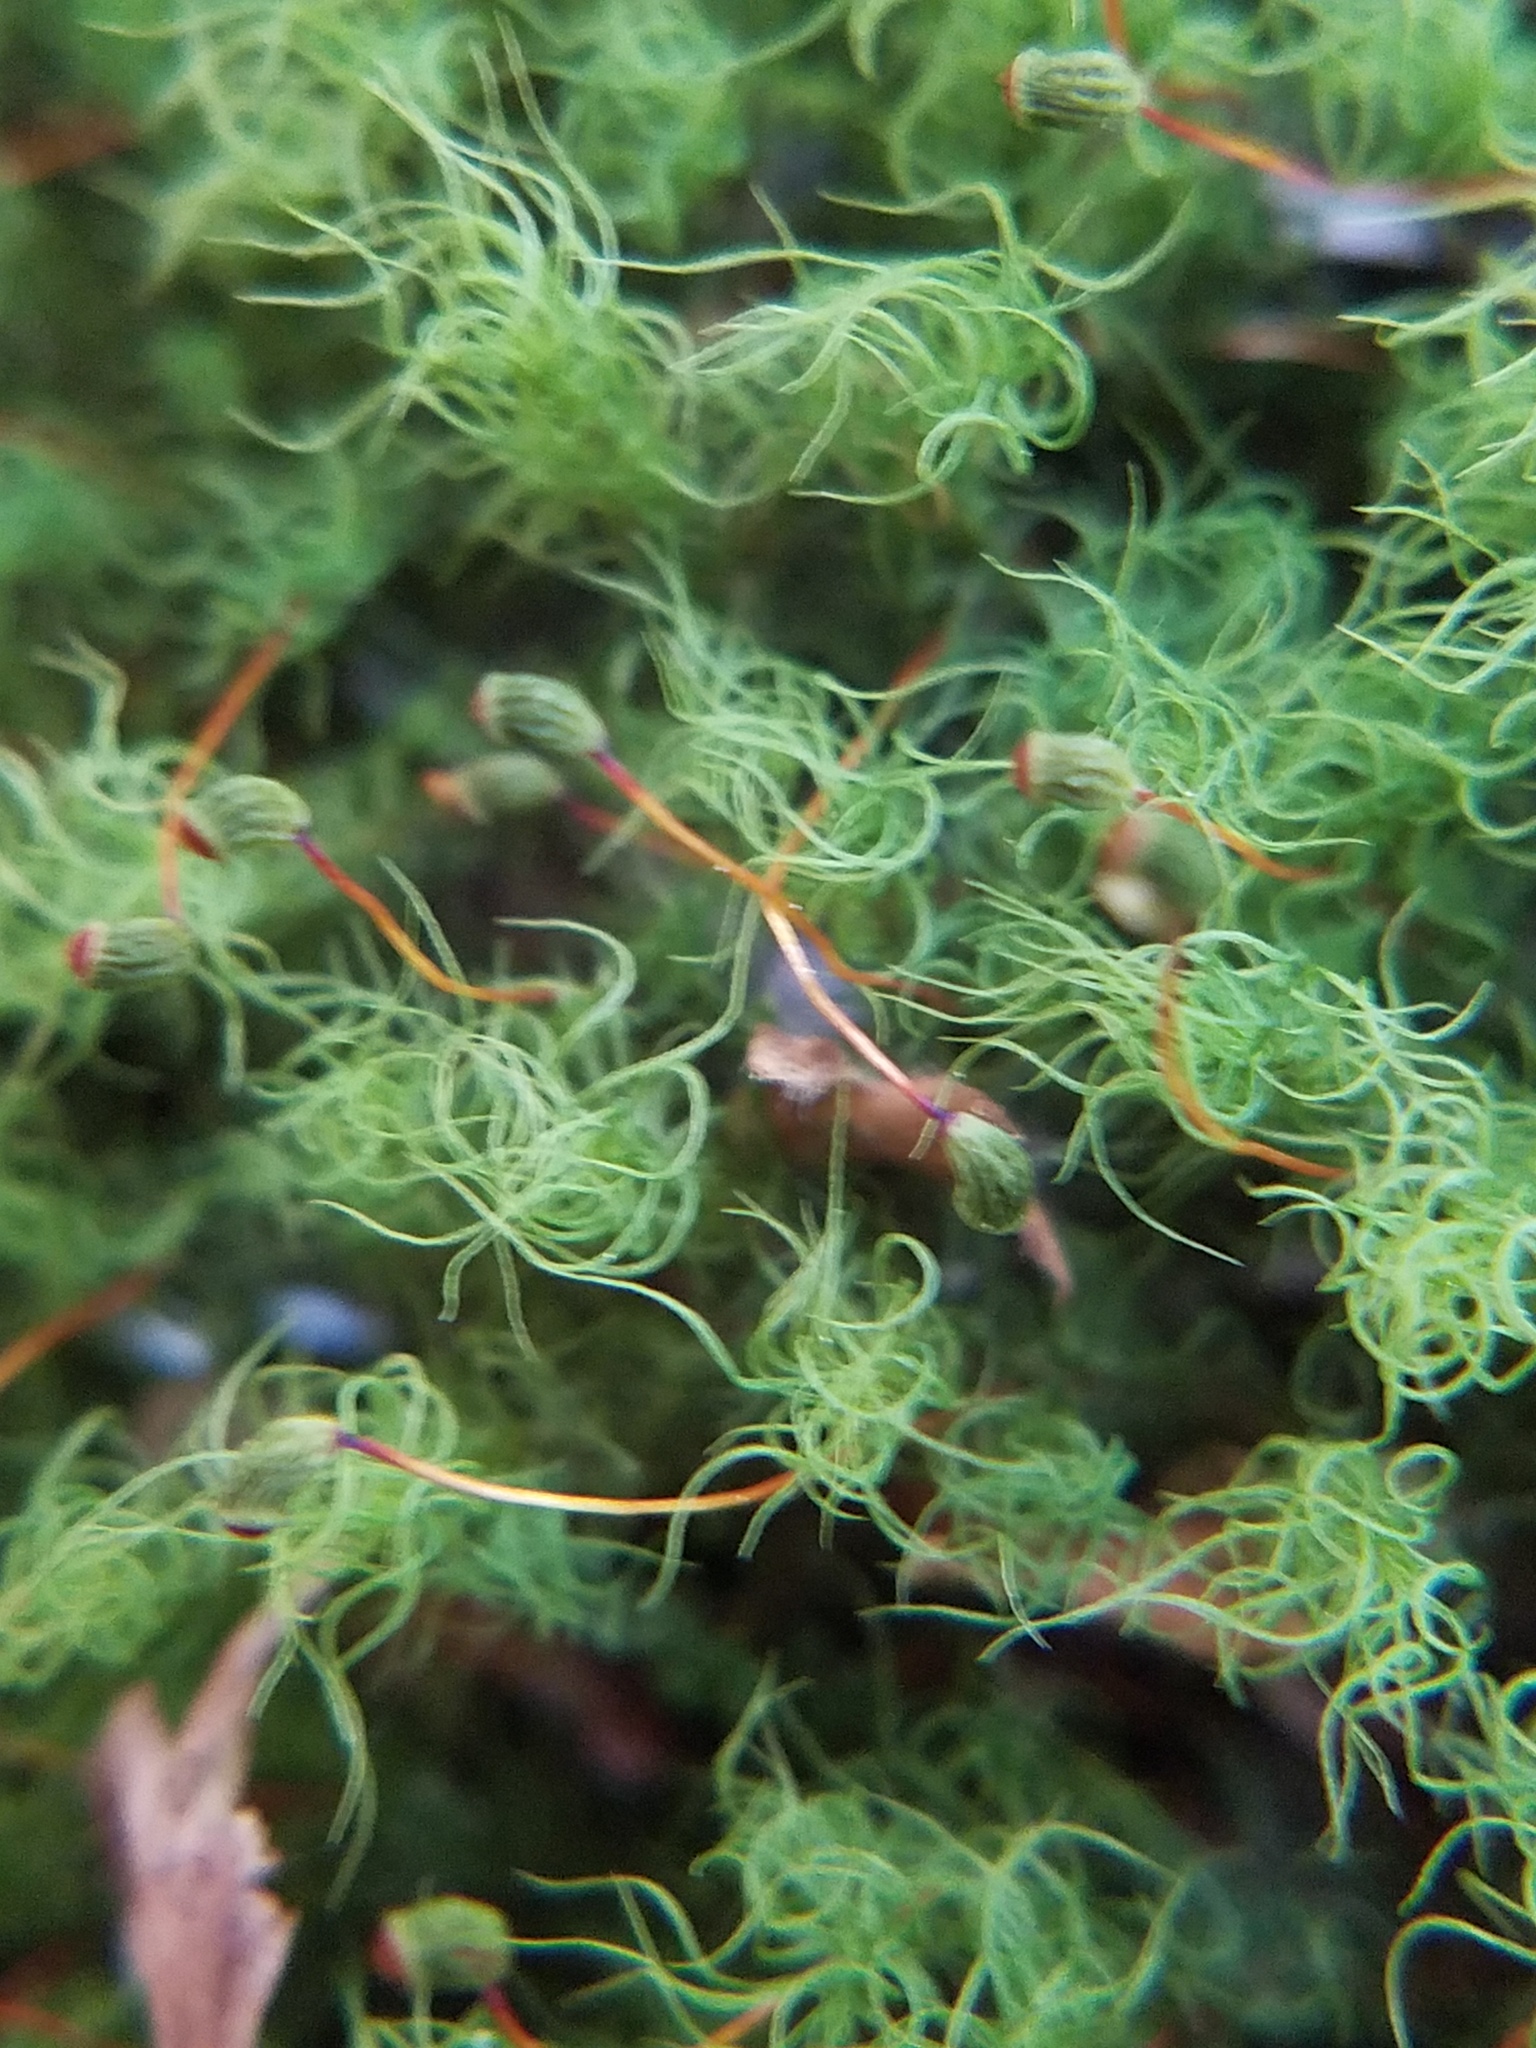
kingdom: Plantae
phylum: Bryophyta
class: Bryopsida
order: Bartramiales
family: Bartramiaceae
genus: Bartramia
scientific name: Bartramia ithyphylla
